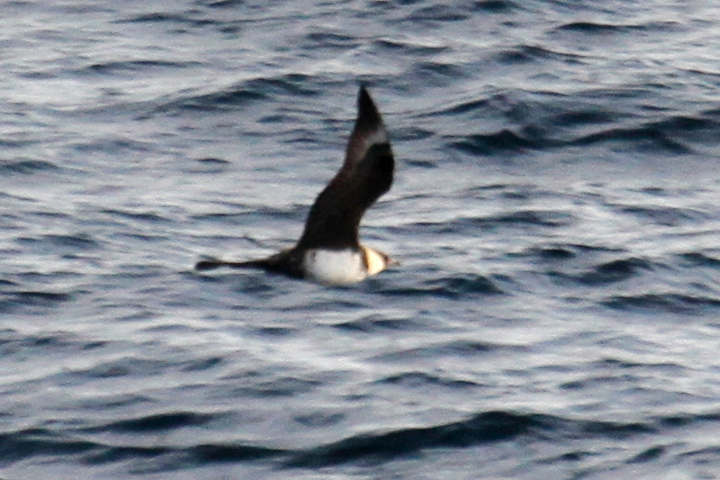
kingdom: Animalia
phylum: Chordata
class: Aves
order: Charadriiformes
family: Stercorariidae
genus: Stercorarius
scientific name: Stercorarius pomarinus
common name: Pomarine jaeger
